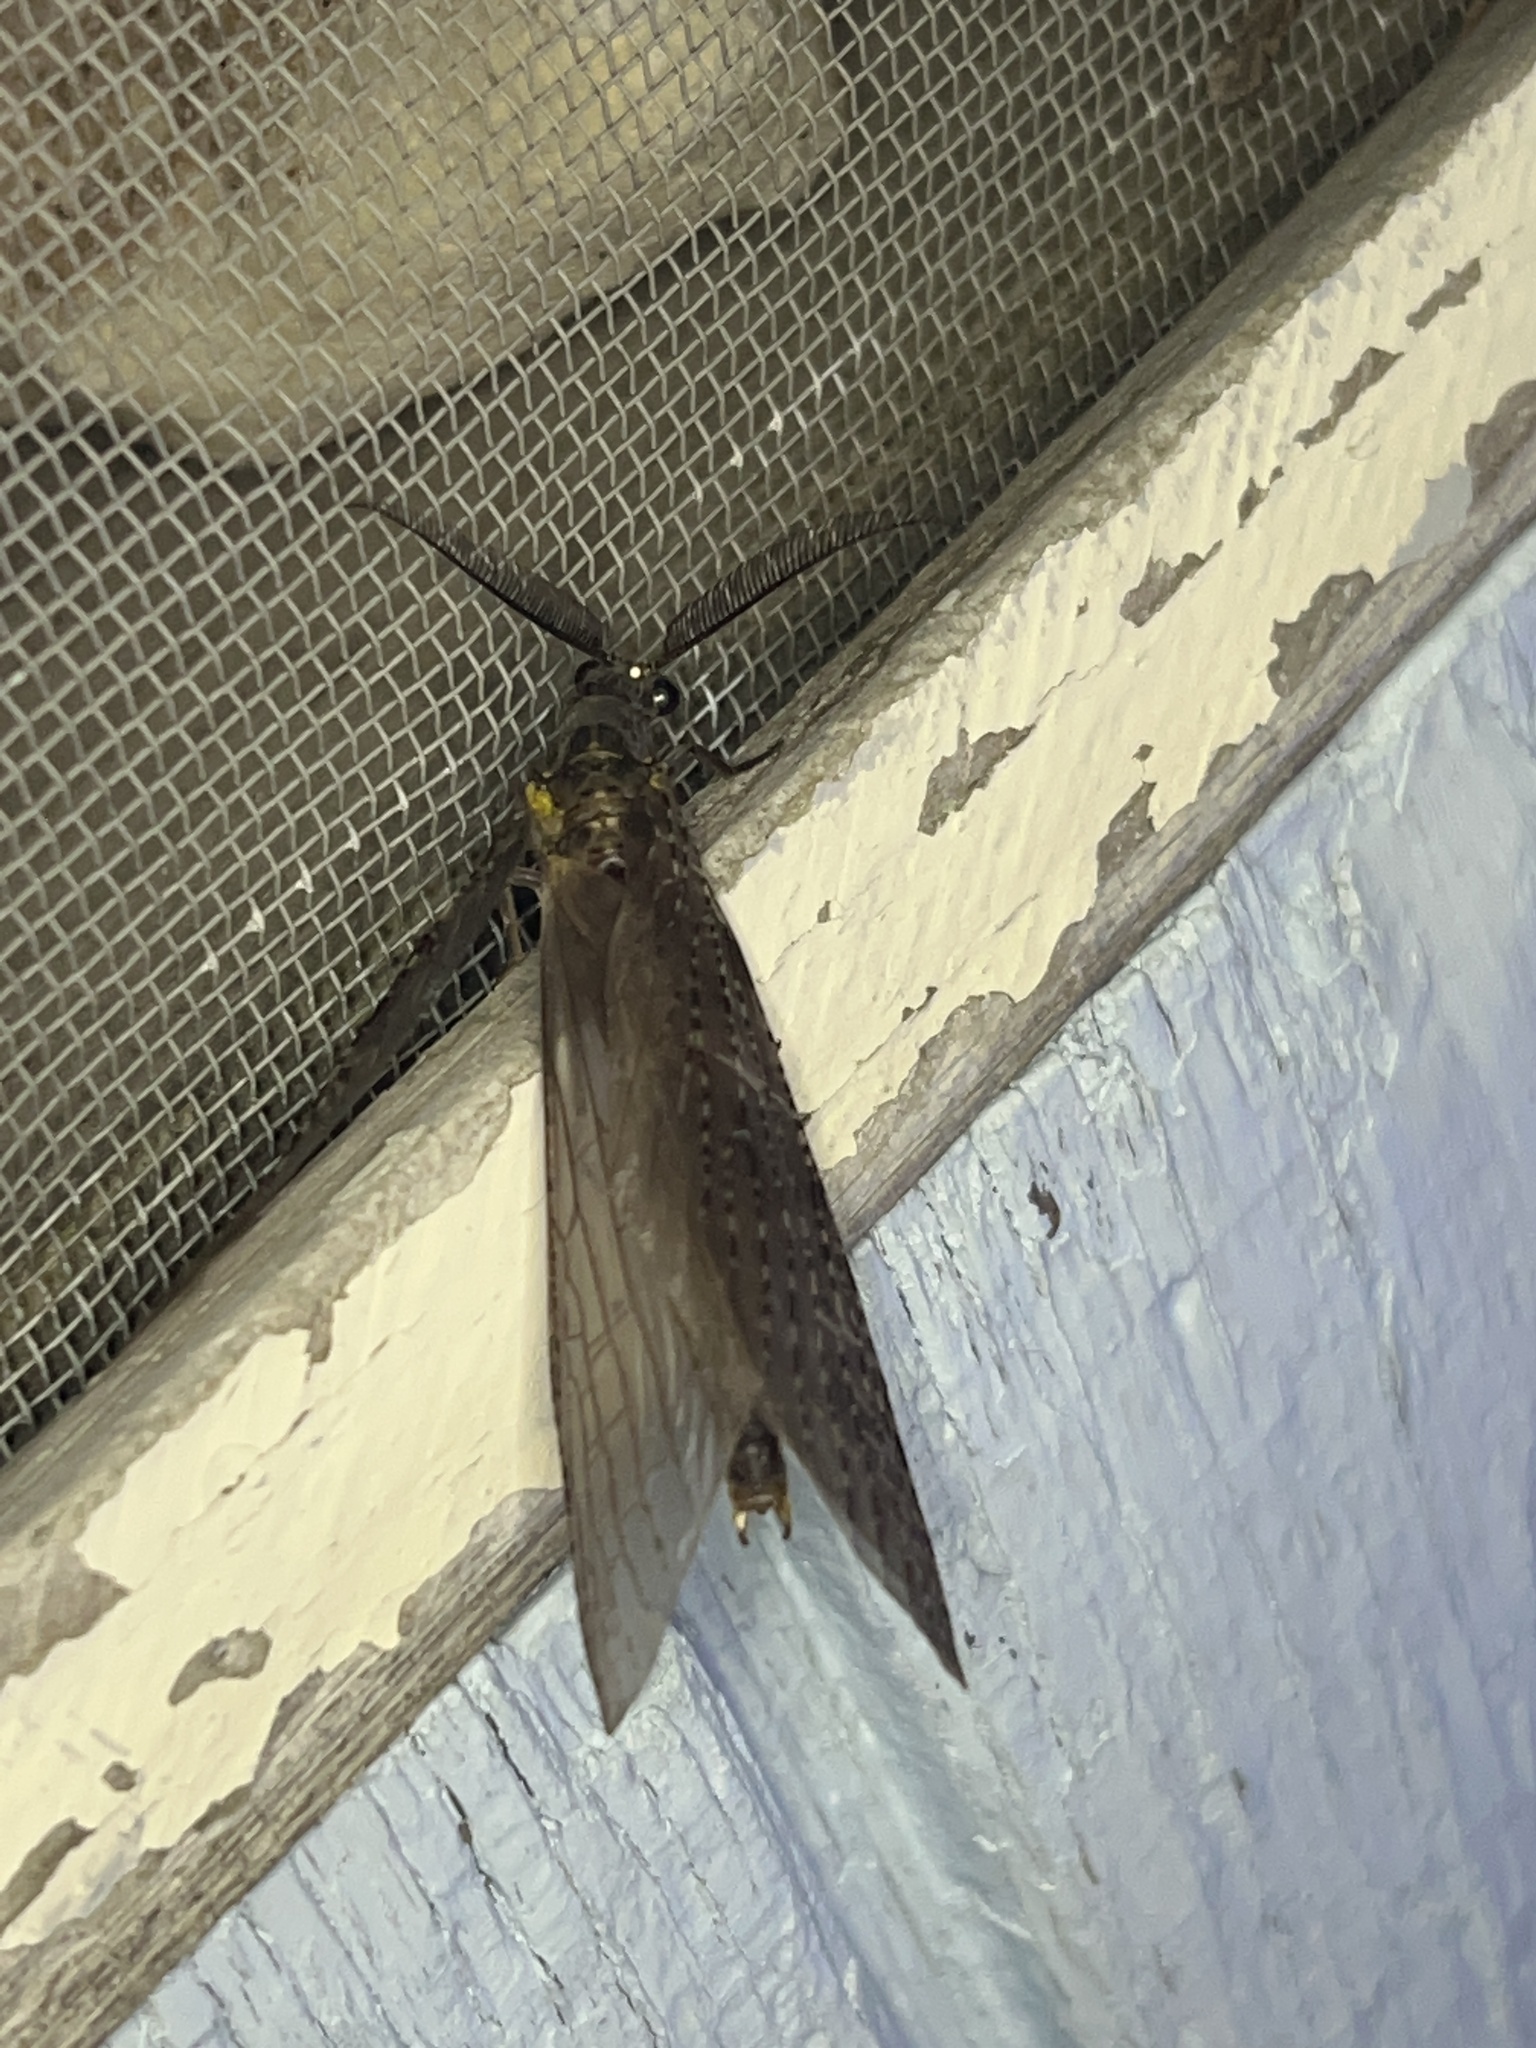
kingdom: Animalia
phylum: Arthropoda
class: Insecta
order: Megaloptera
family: Corydalidae
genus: Chauliodes
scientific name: Chauliodes pectinicornis
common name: Summer fishfly
